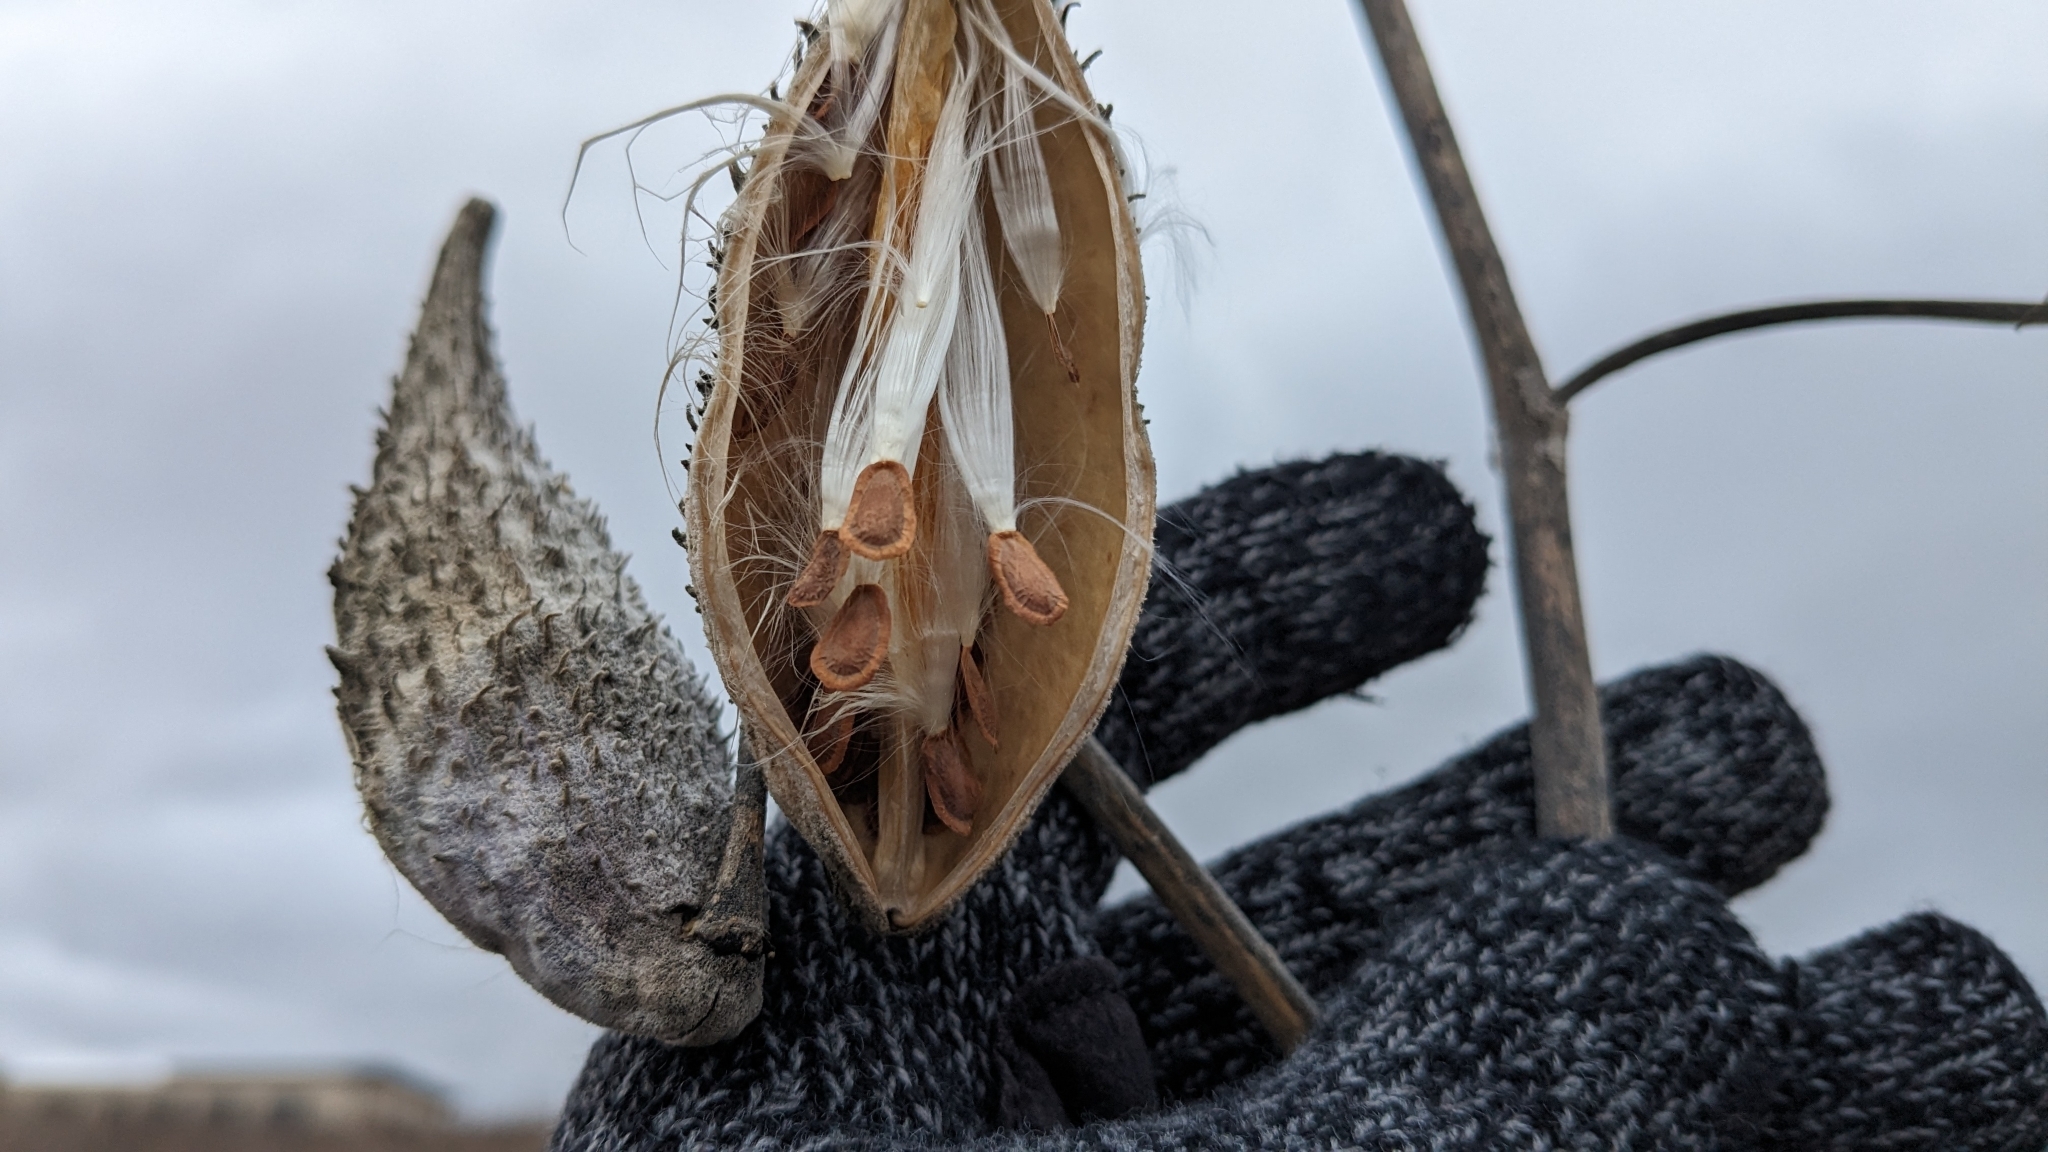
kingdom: Plantae
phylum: Tracheophyta
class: Magnoliopsida
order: Gentianales
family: Apocynaceae
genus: Asclepias
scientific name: Asclepias syriaca
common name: Common milkweed
